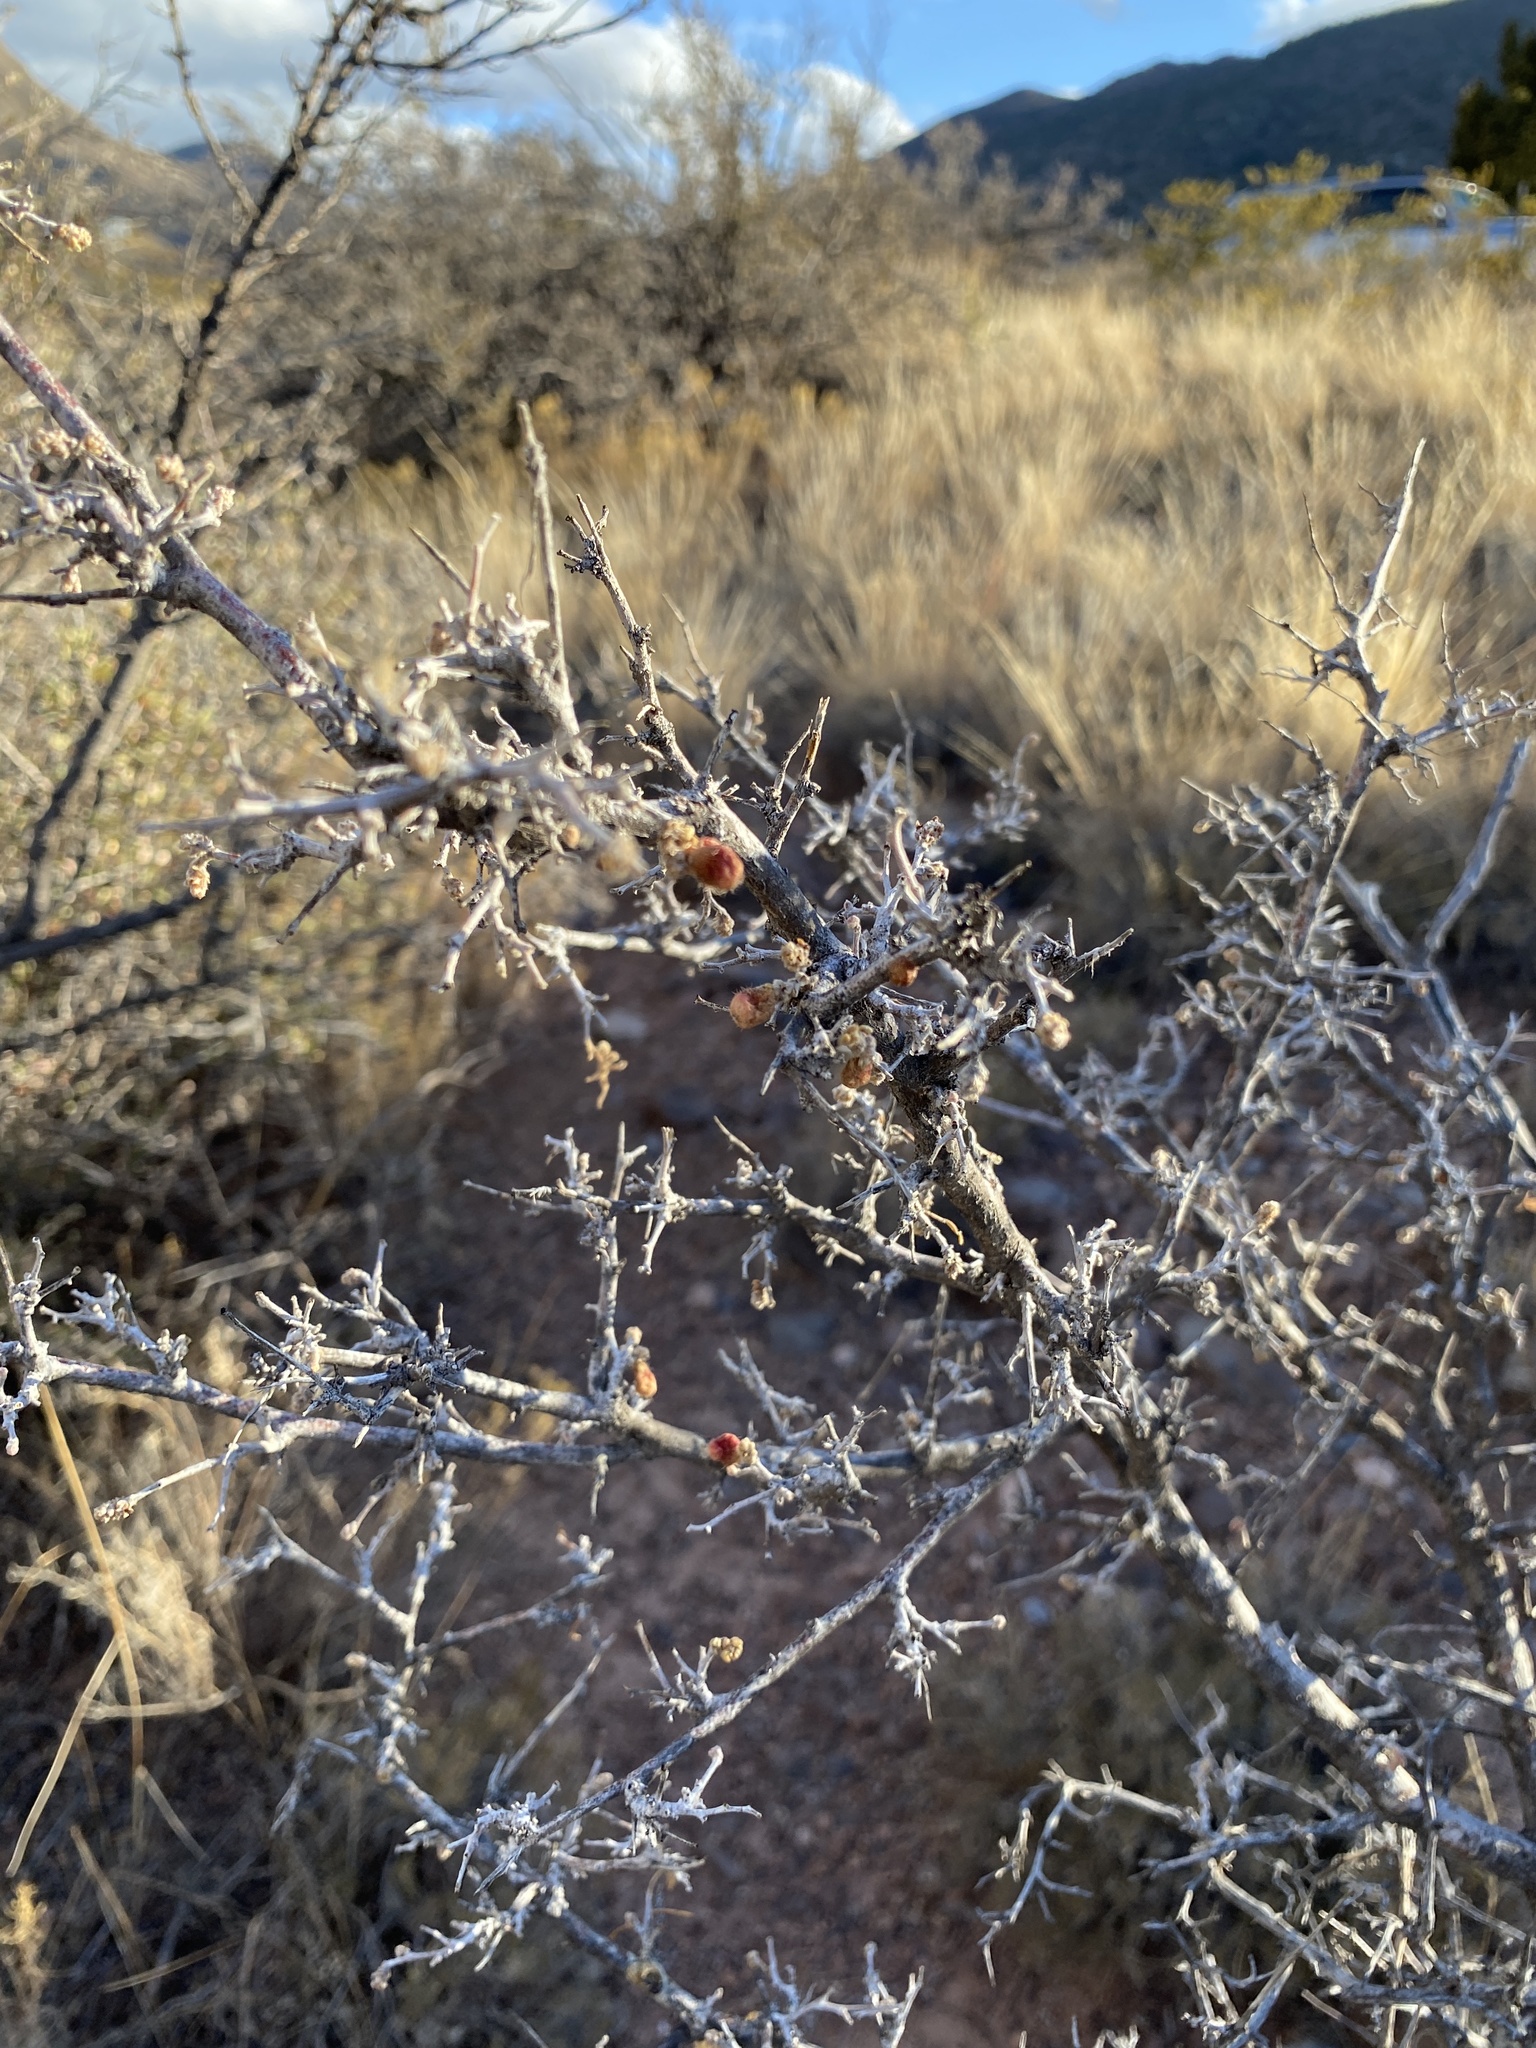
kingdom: Plantae
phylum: Tracheophyta
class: Magnoliopsida
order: Sapindales
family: Anacardiaceae
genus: Rhus
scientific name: Rhus microphylla
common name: Desert sumac
